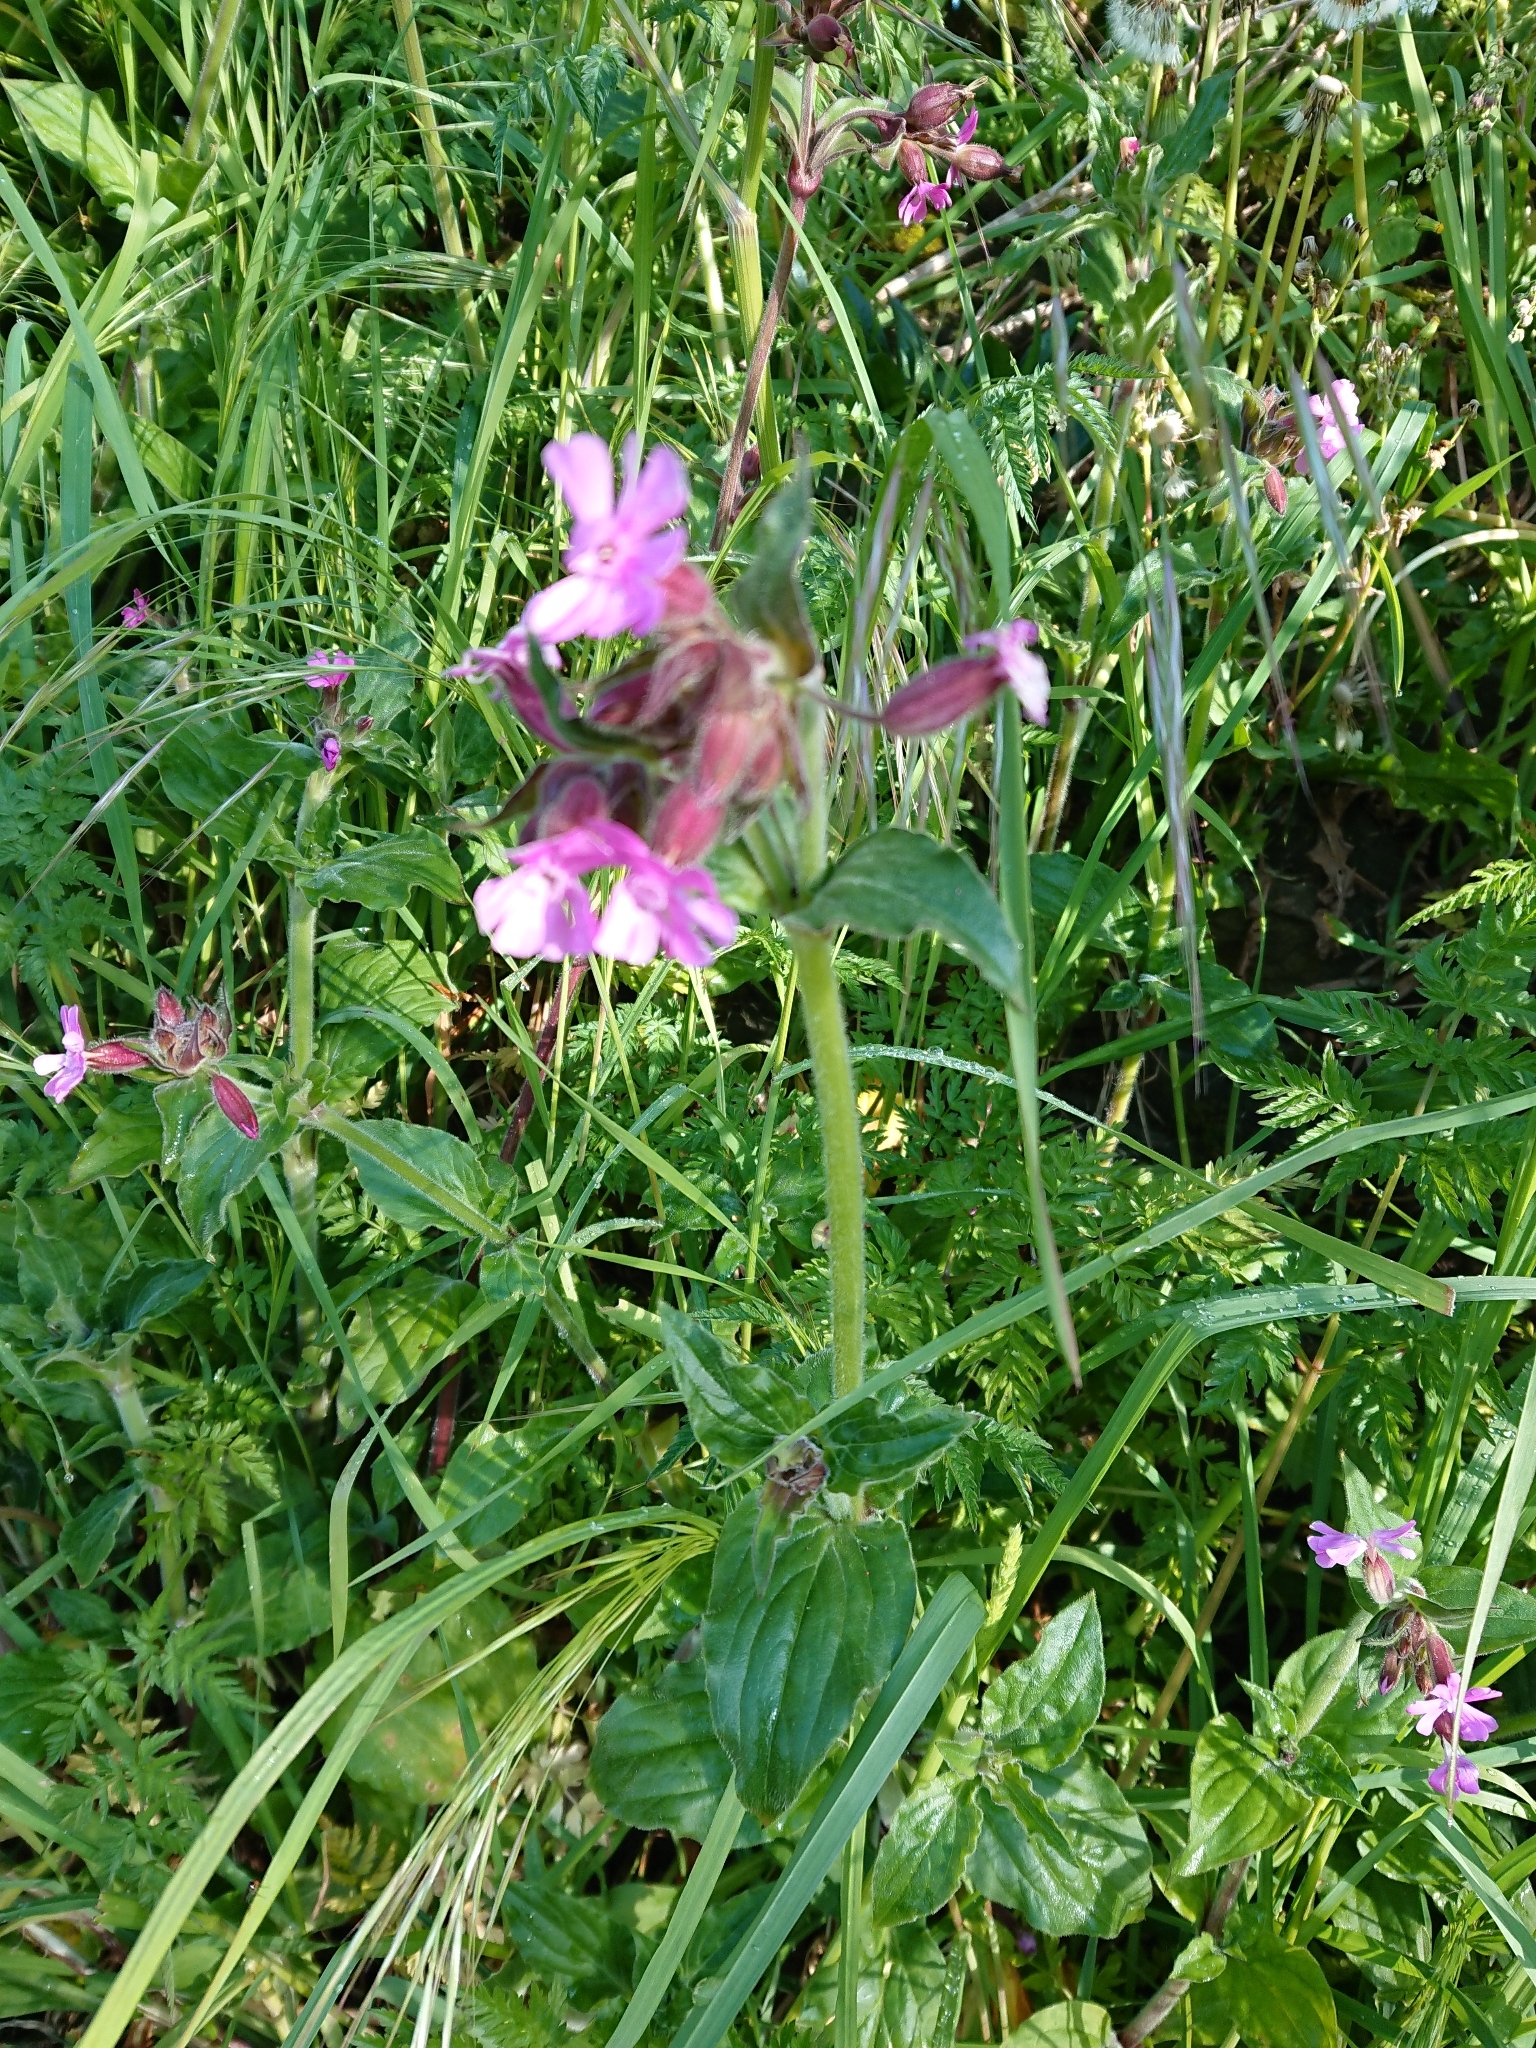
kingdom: Plantae
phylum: Tracheophyta
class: Magnoliopsida
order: Caryophyllales
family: Caryophyllaceae
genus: Silene
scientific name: Silene dioica
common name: Red campion
